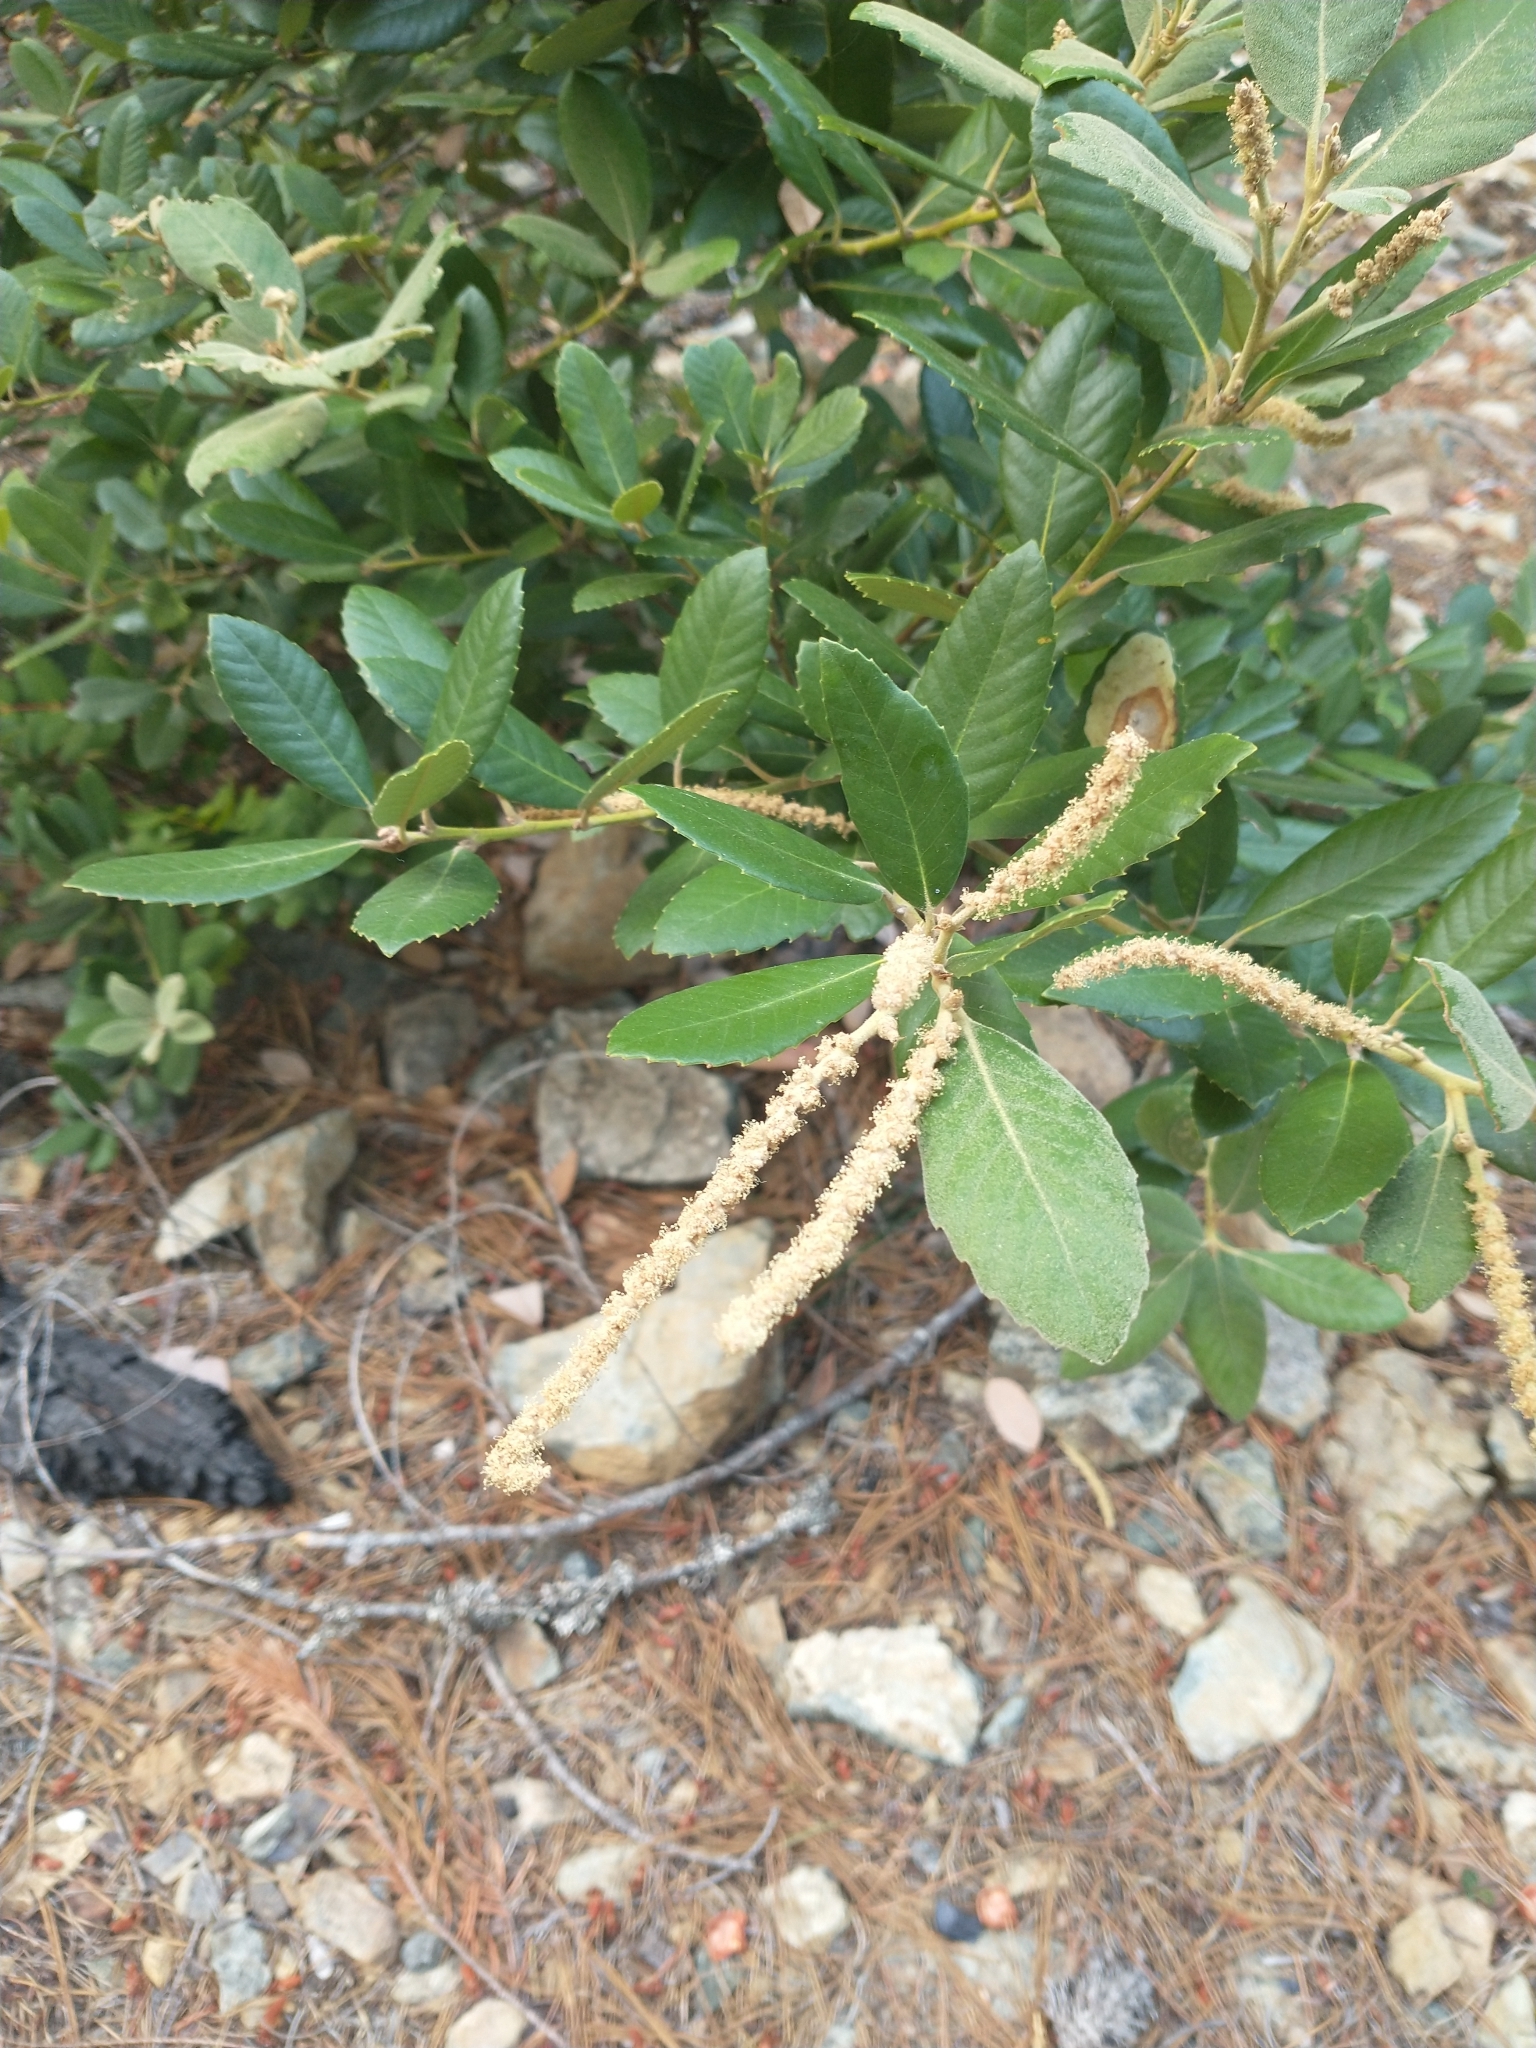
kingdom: Plantae
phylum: Tracheophyta
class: Magnoliopsida
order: Fagales
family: Fagaceae
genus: Notholithocarpus
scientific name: Notholithocarpus densiflorus
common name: Tan bark oak
